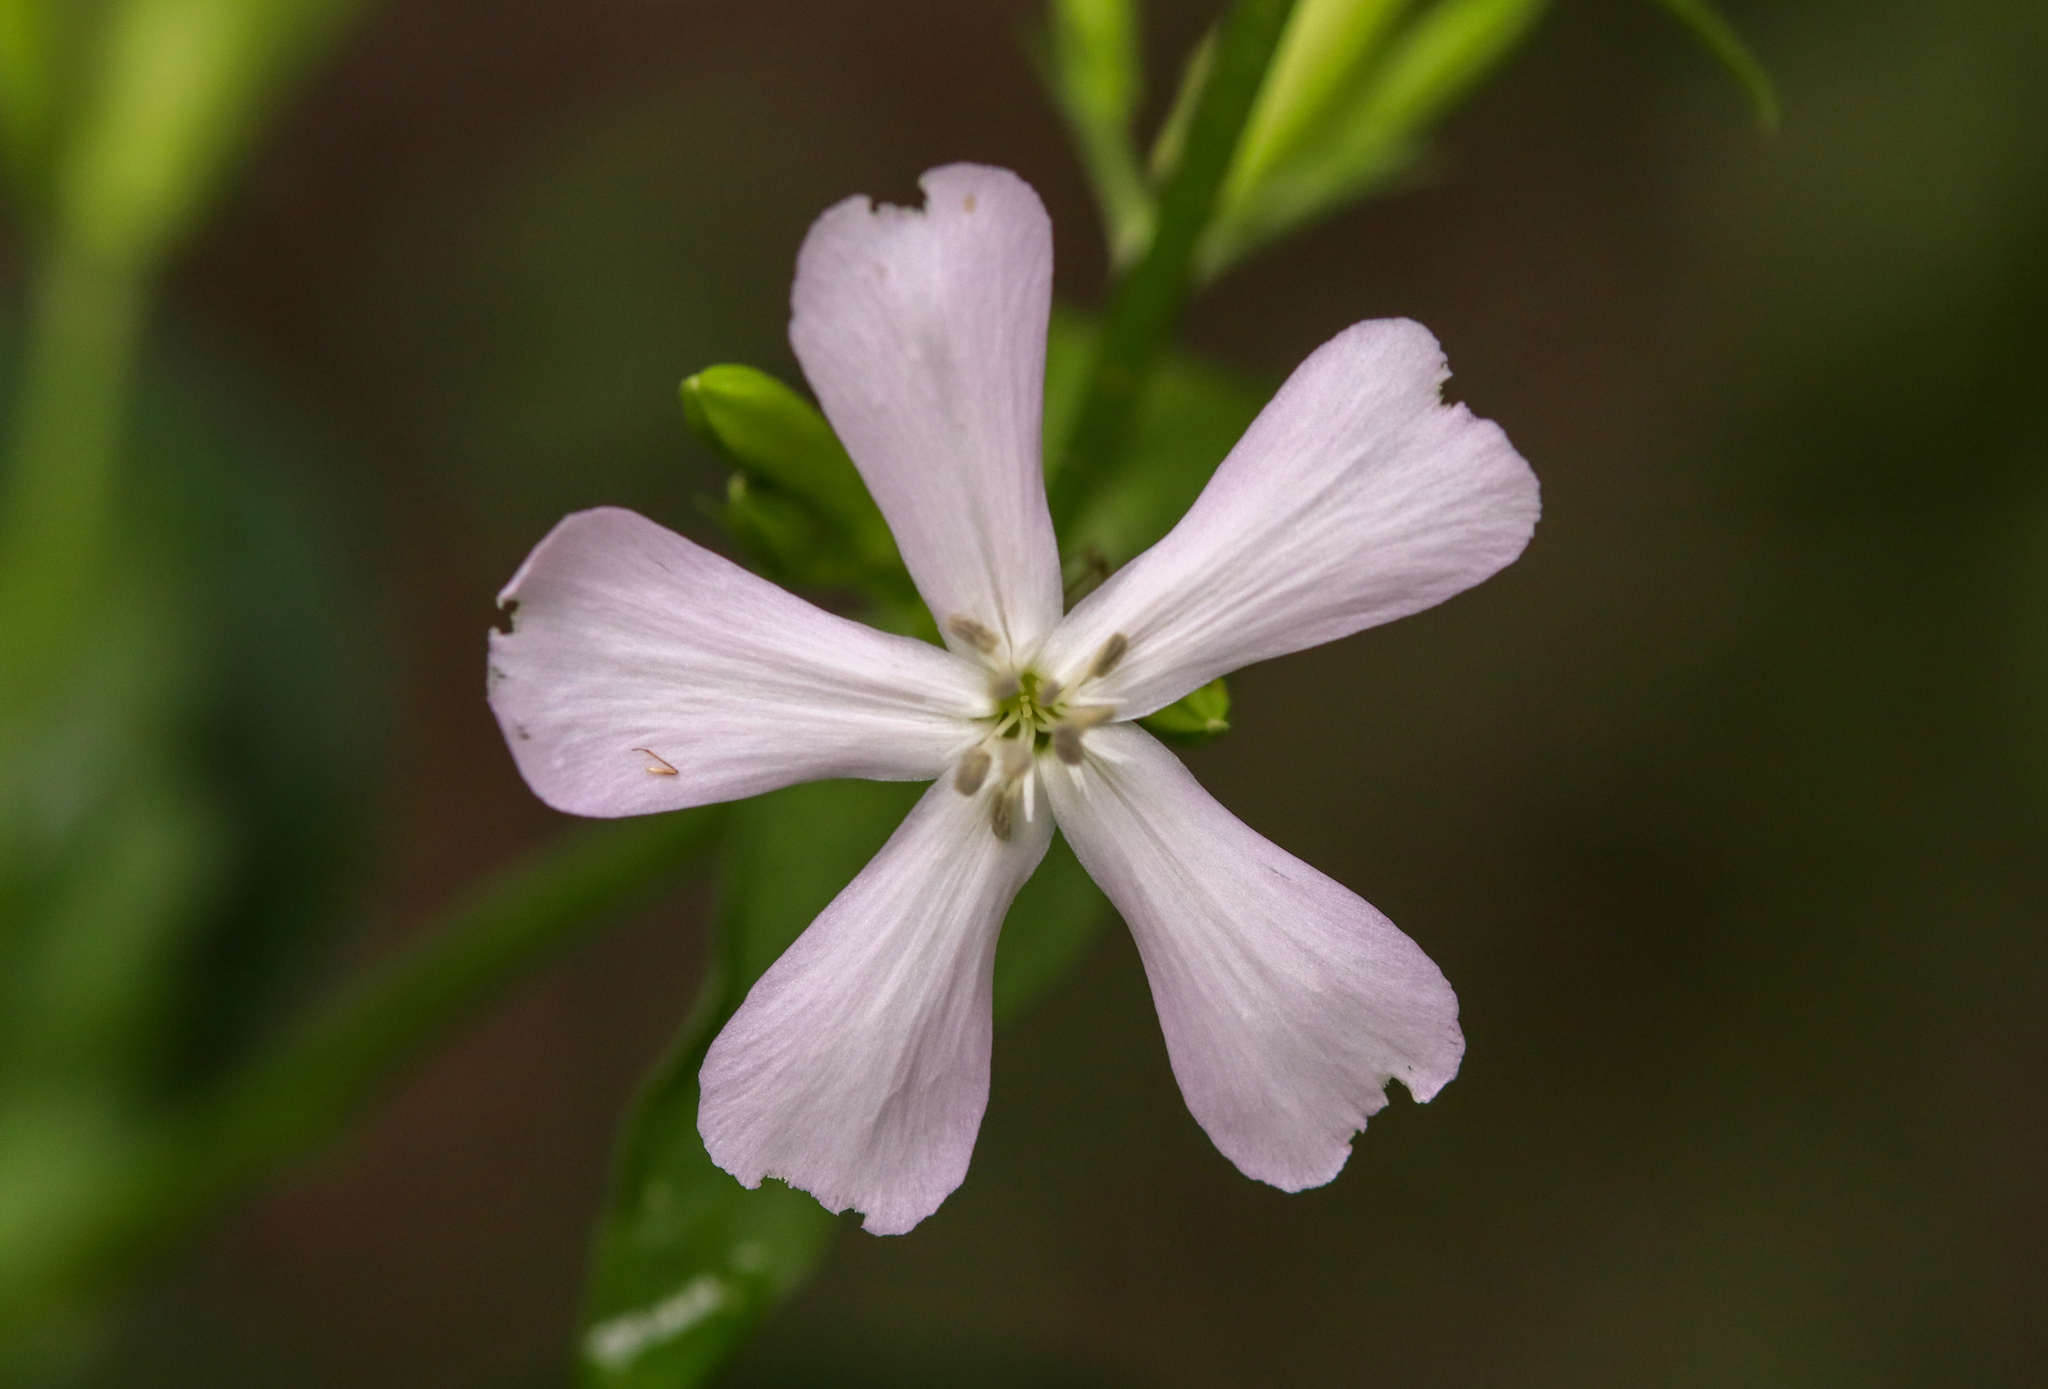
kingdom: Plantae
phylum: Tracheophyta
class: Magnoliopsida
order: Caryophyllales
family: Caryophyllaceae
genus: Saponaria
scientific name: Saponaria officinalis
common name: Soapwort
